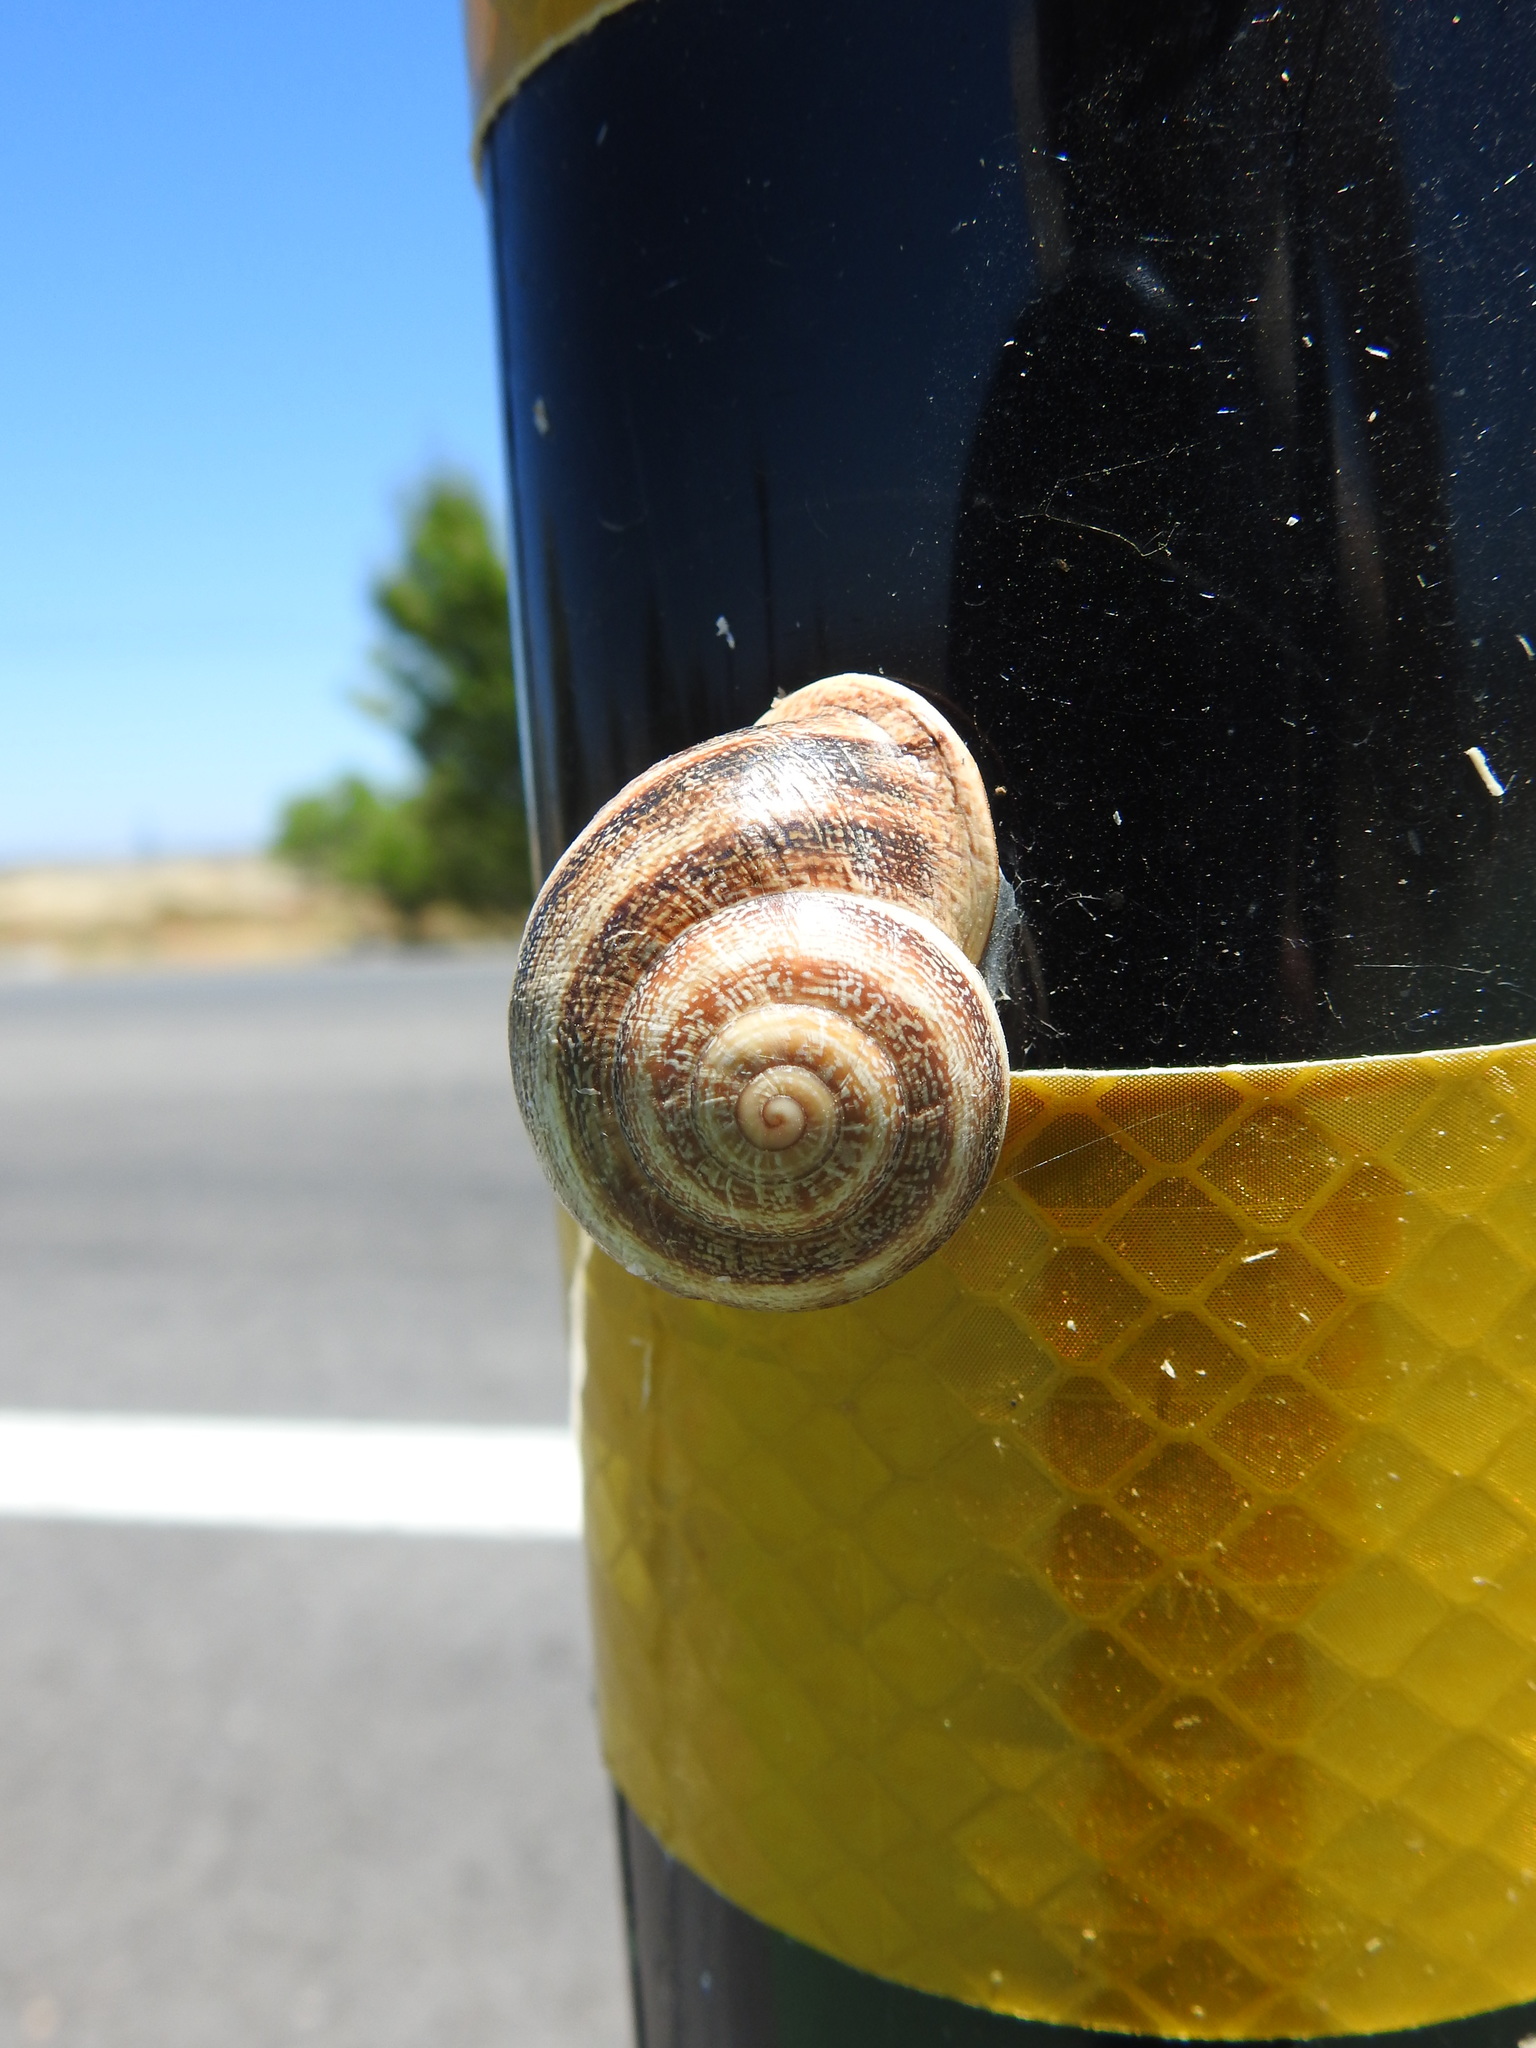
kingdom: Animalia
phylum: Mollusca
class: Gastropoda
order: Stylommatophora
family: Helicidae
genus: Otala
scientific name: Otala lactea
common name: Milk snail
